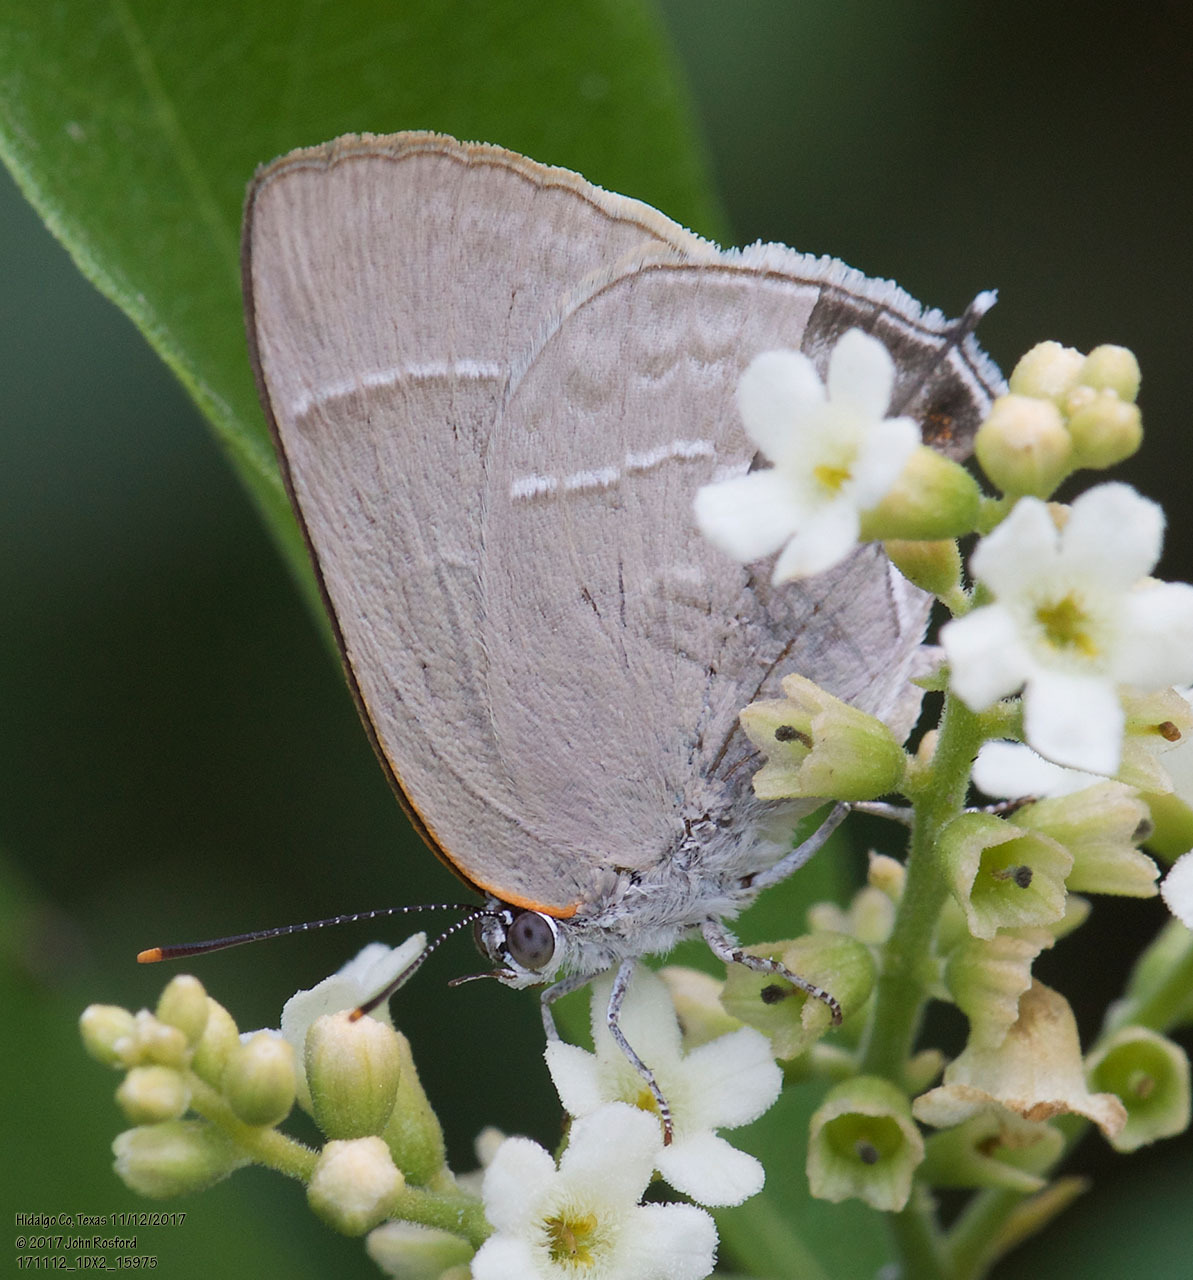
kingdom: Animalia
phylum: Arthropoda
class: Insecta
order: Lepidoptera
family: Lycaenidae
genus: Thecla
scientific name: Thecla marius
